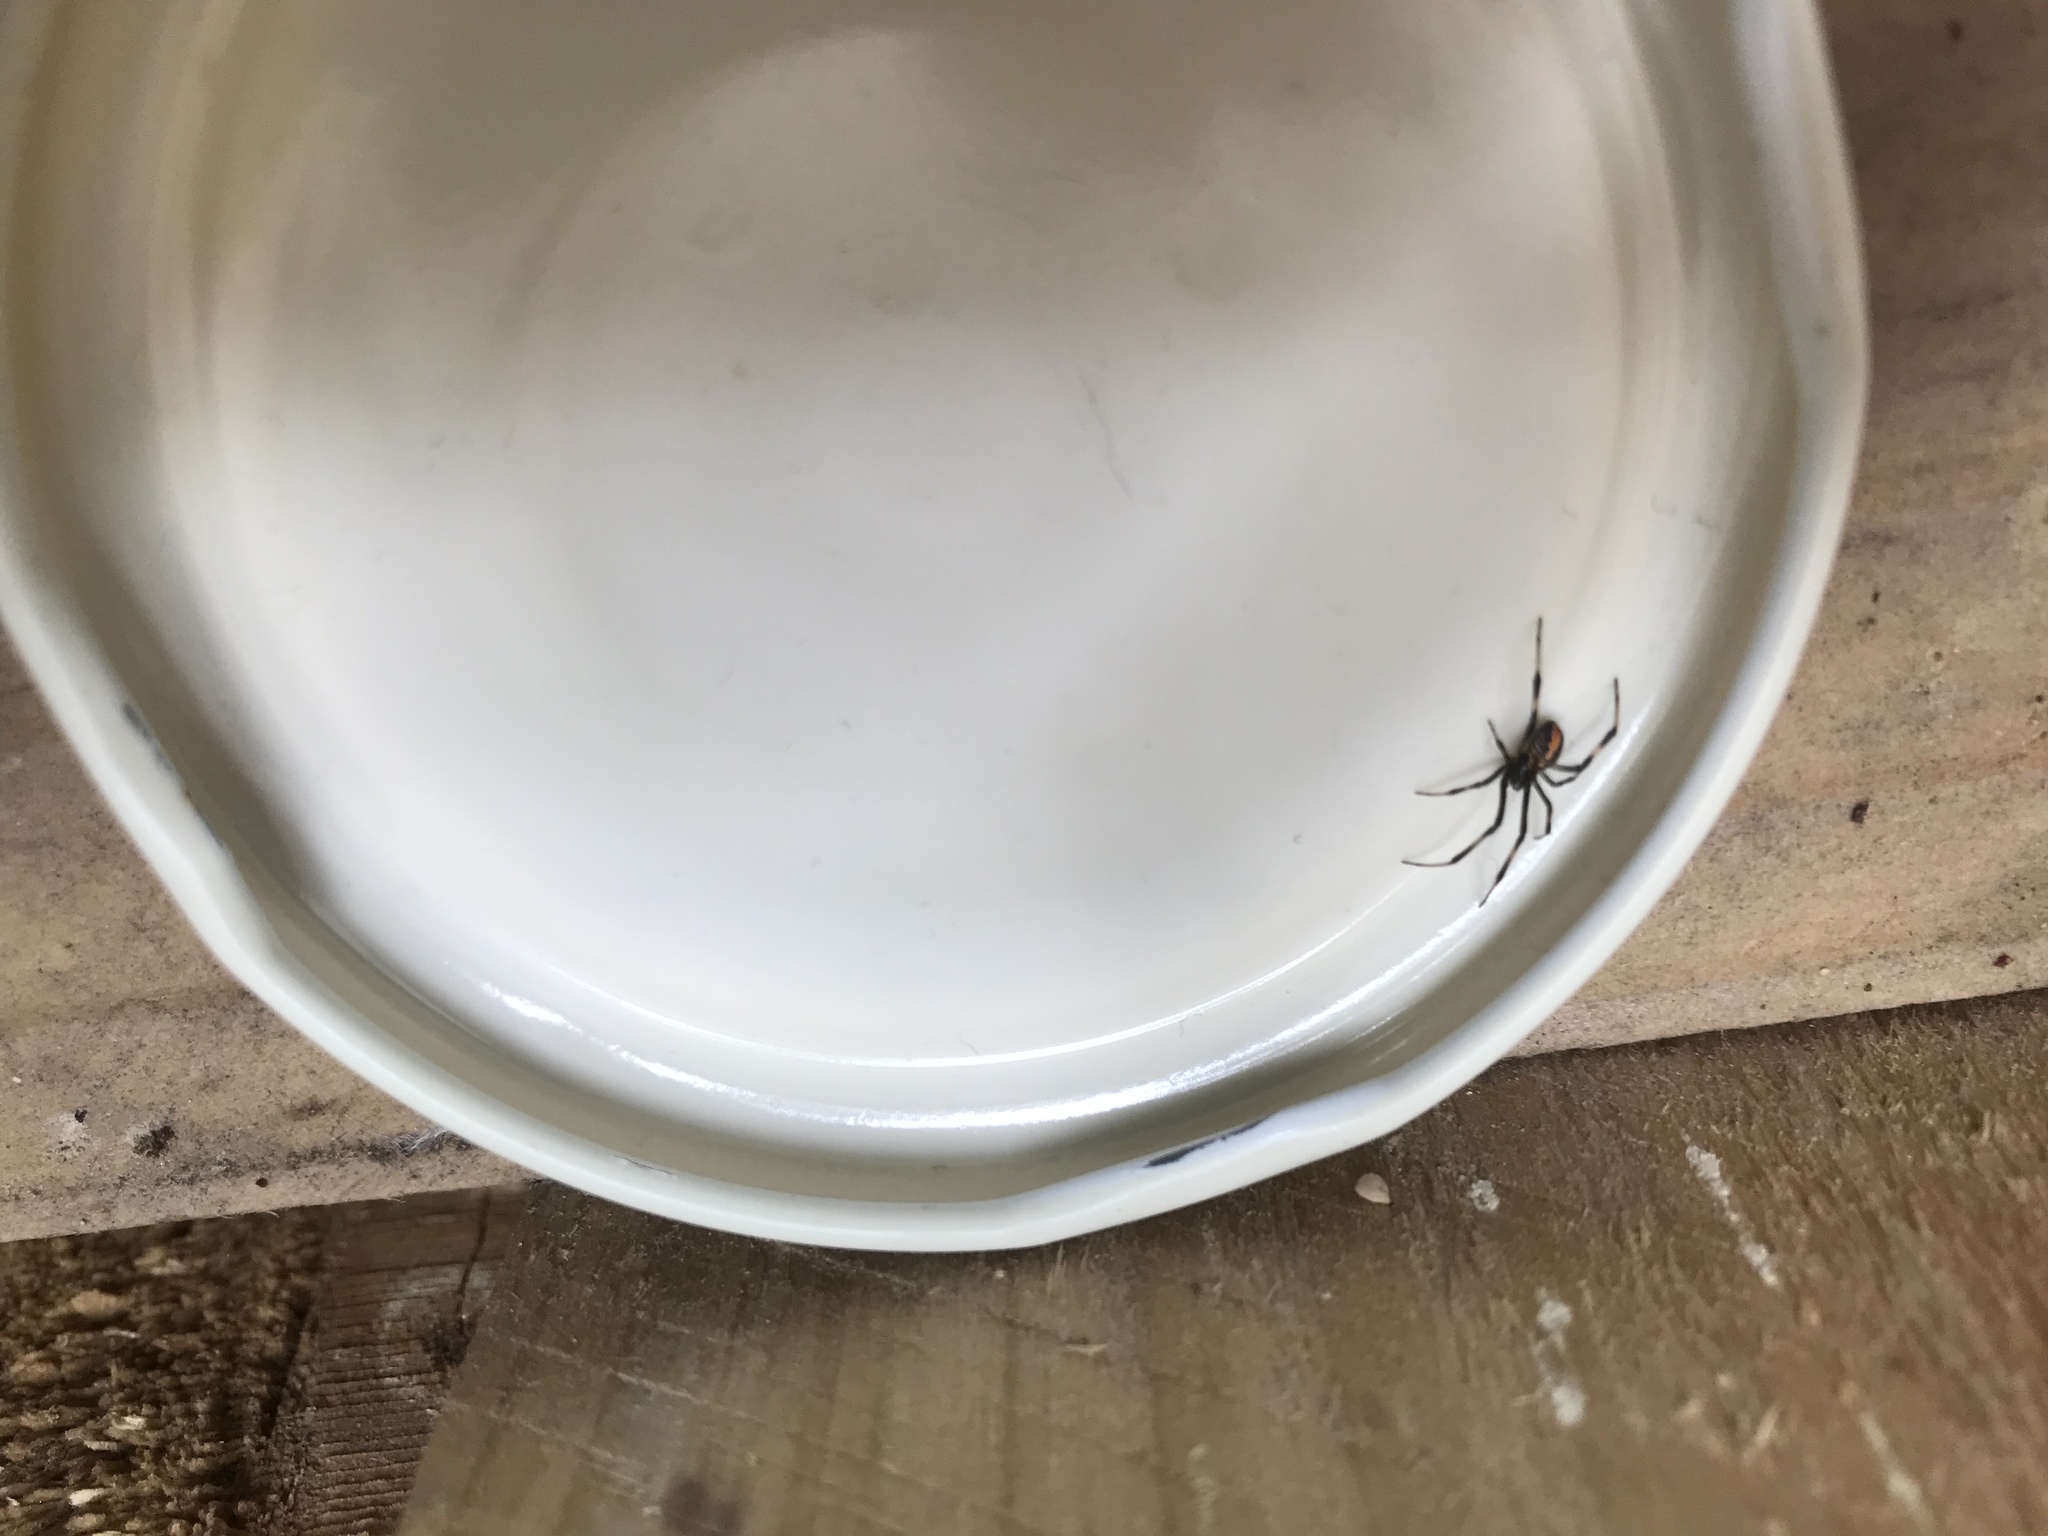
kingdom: Animalia
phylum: Arthropoda
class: Arachnida
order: Araneae
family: Theridiidae
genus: Latrodectus
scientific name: Latrodectus hasselti
